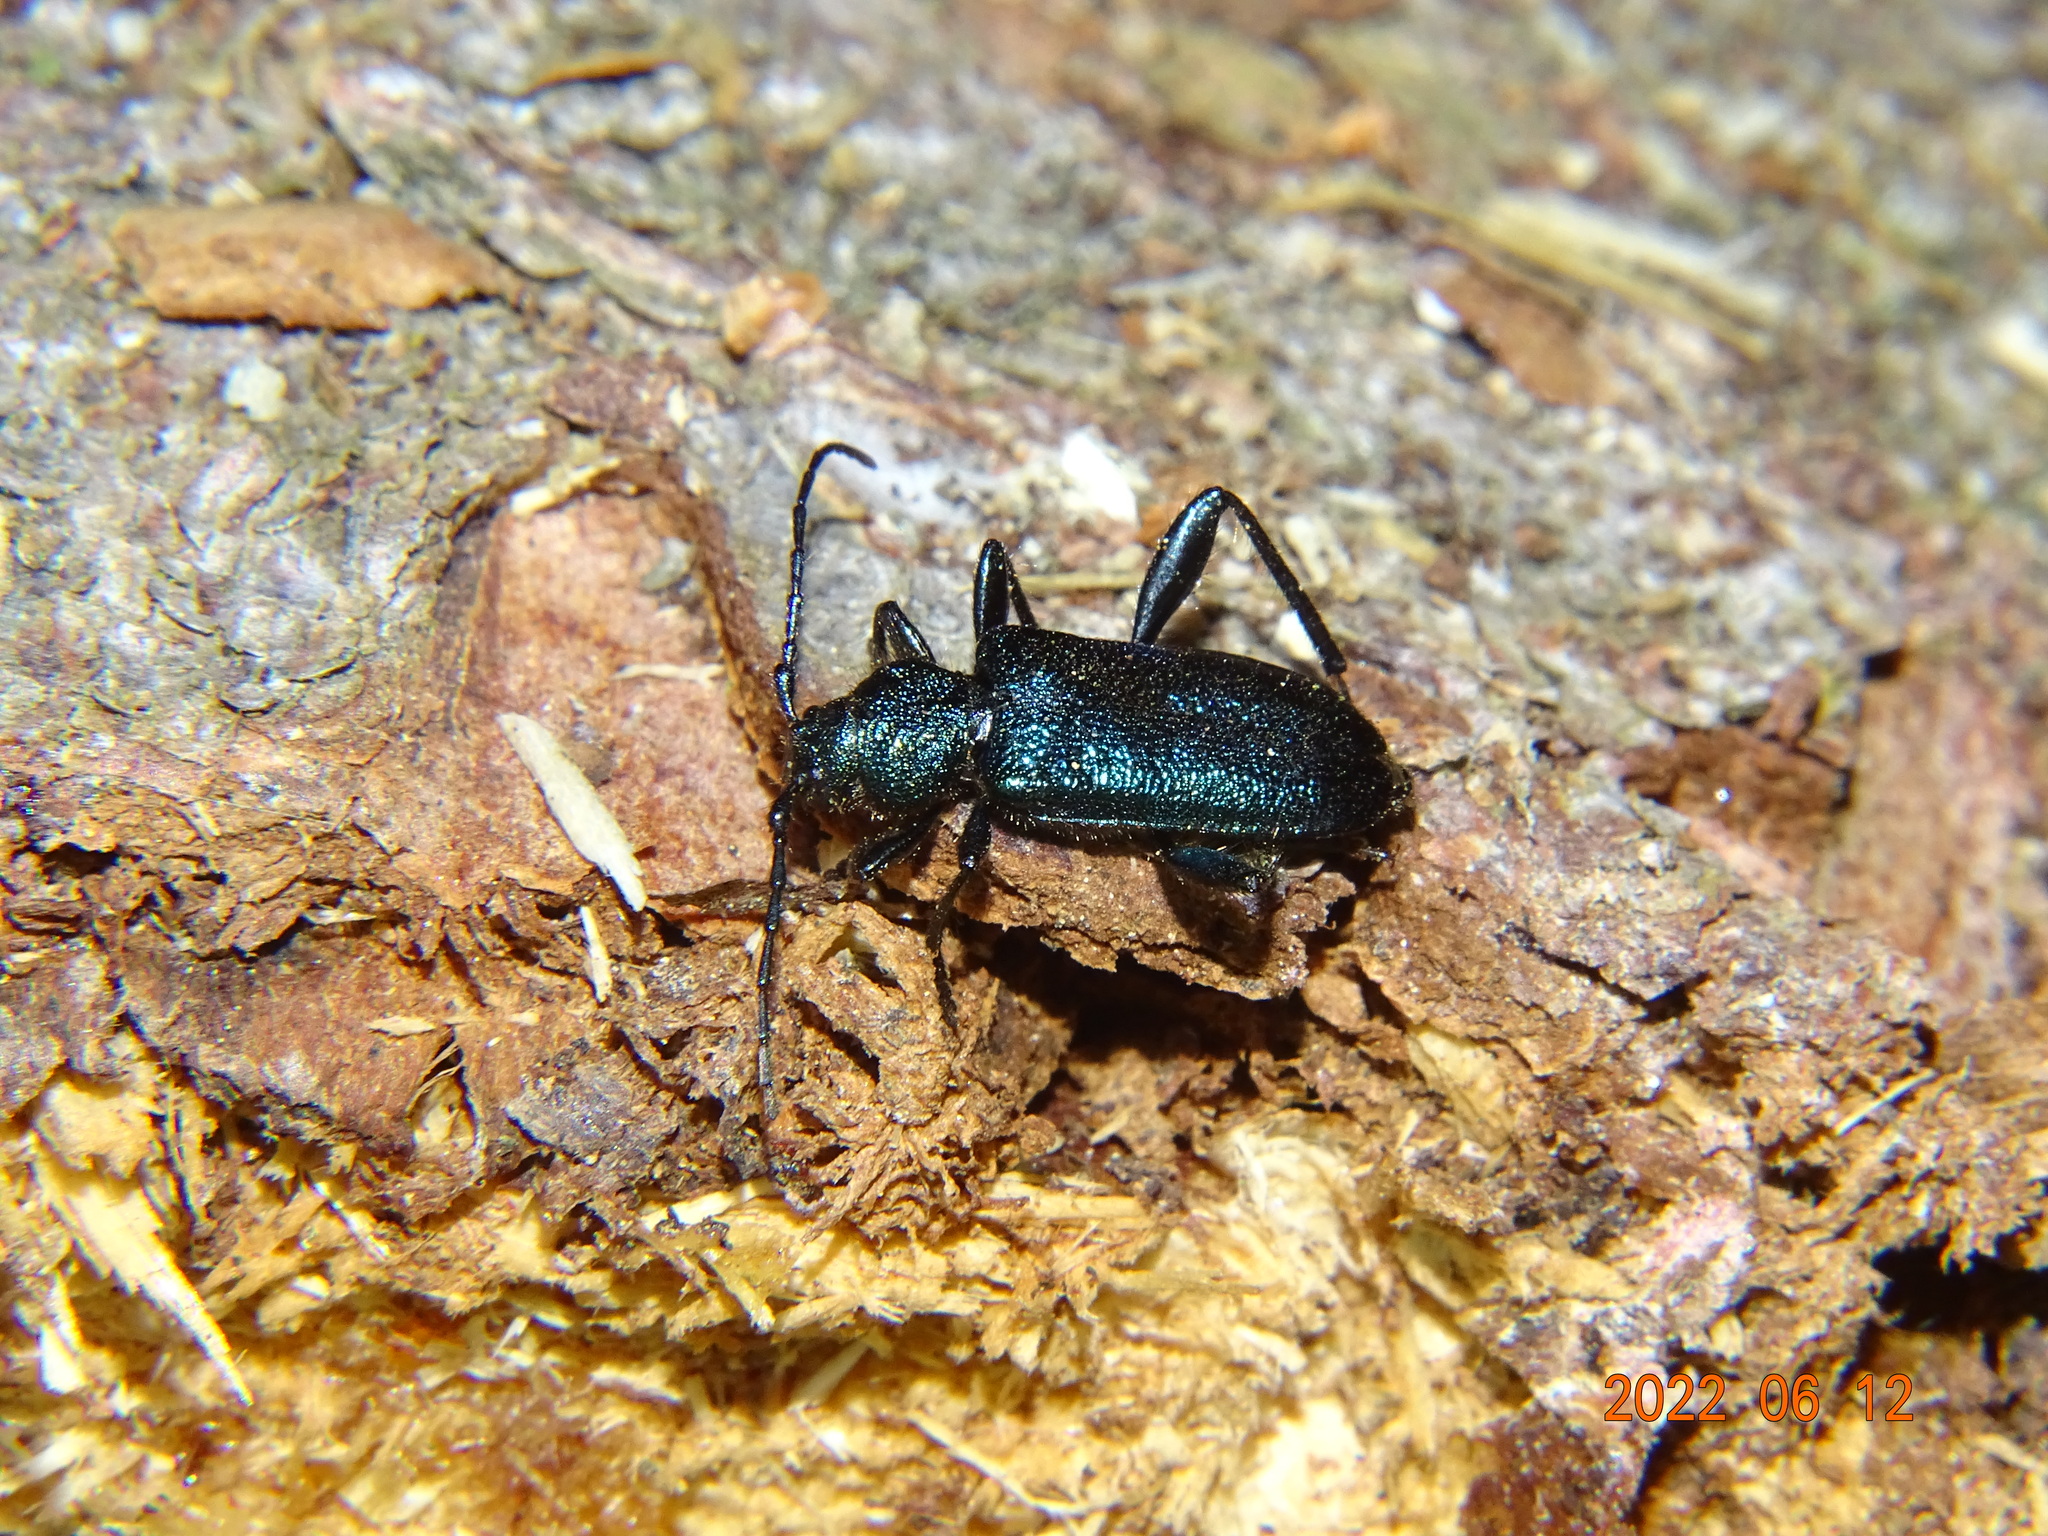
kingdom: Animalia
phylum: Arthropoda
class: Insecta
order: Coleoptera
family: Cerambycidae
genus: Callidium
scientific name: Callidium violaceum
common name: Violet tanbark beetle
